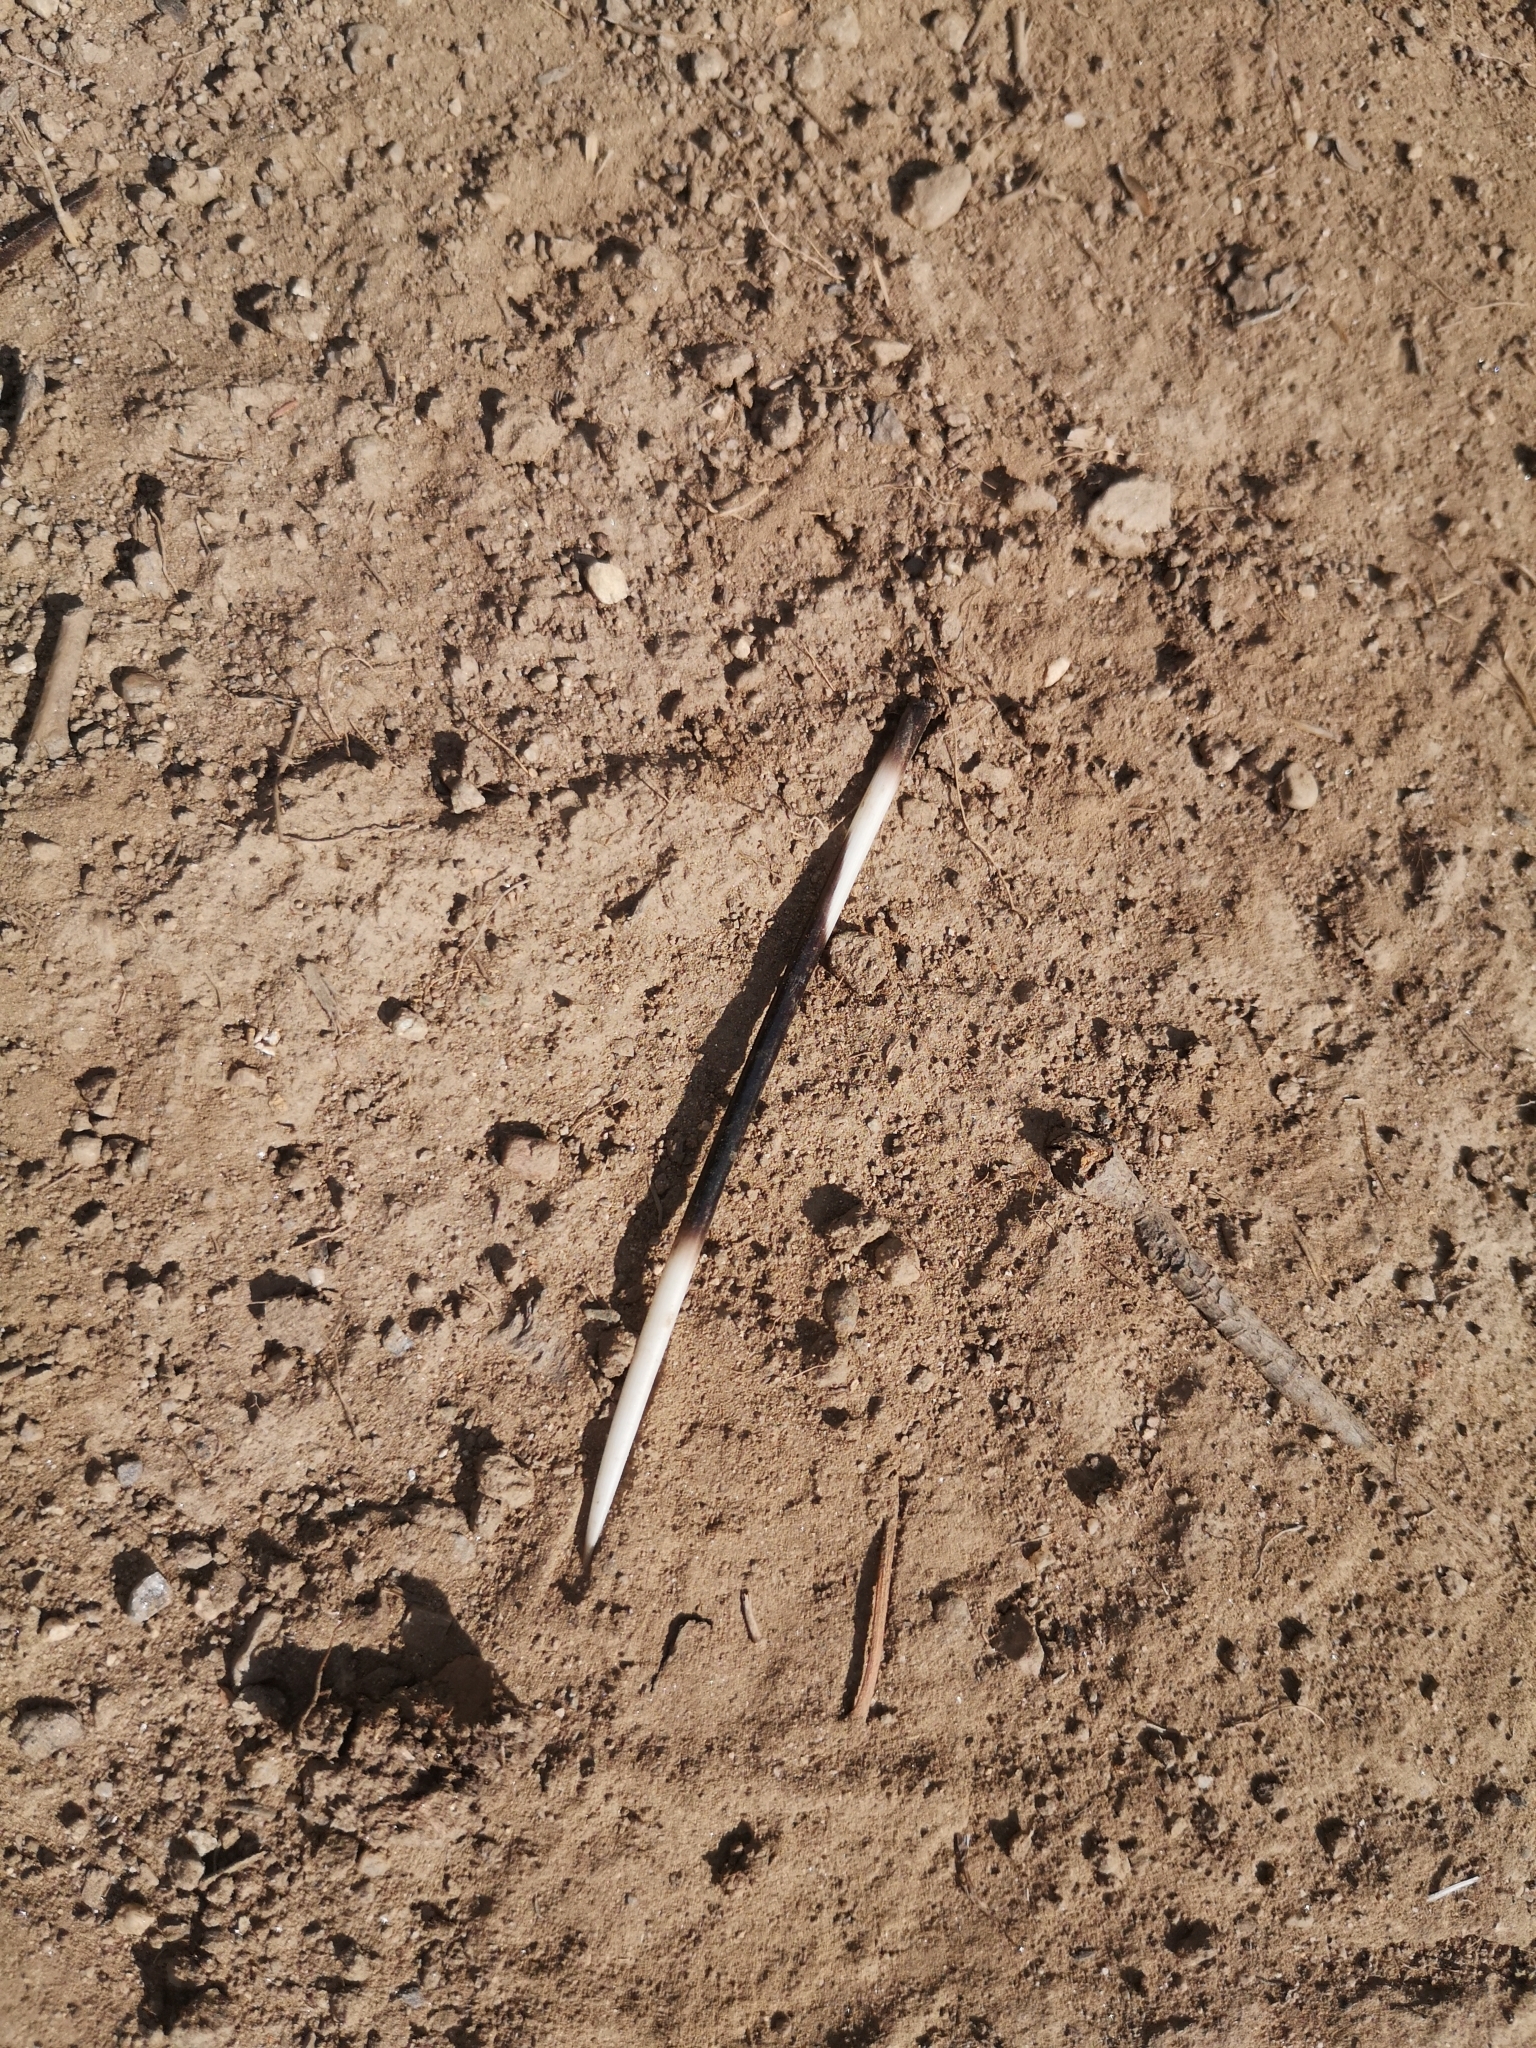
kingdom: Animalia
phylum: Chordata
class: Mammalia
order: Rodentia
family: Hystricidae
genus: Hystrix
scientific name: Hystrix cristata
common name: Crested porcupine
